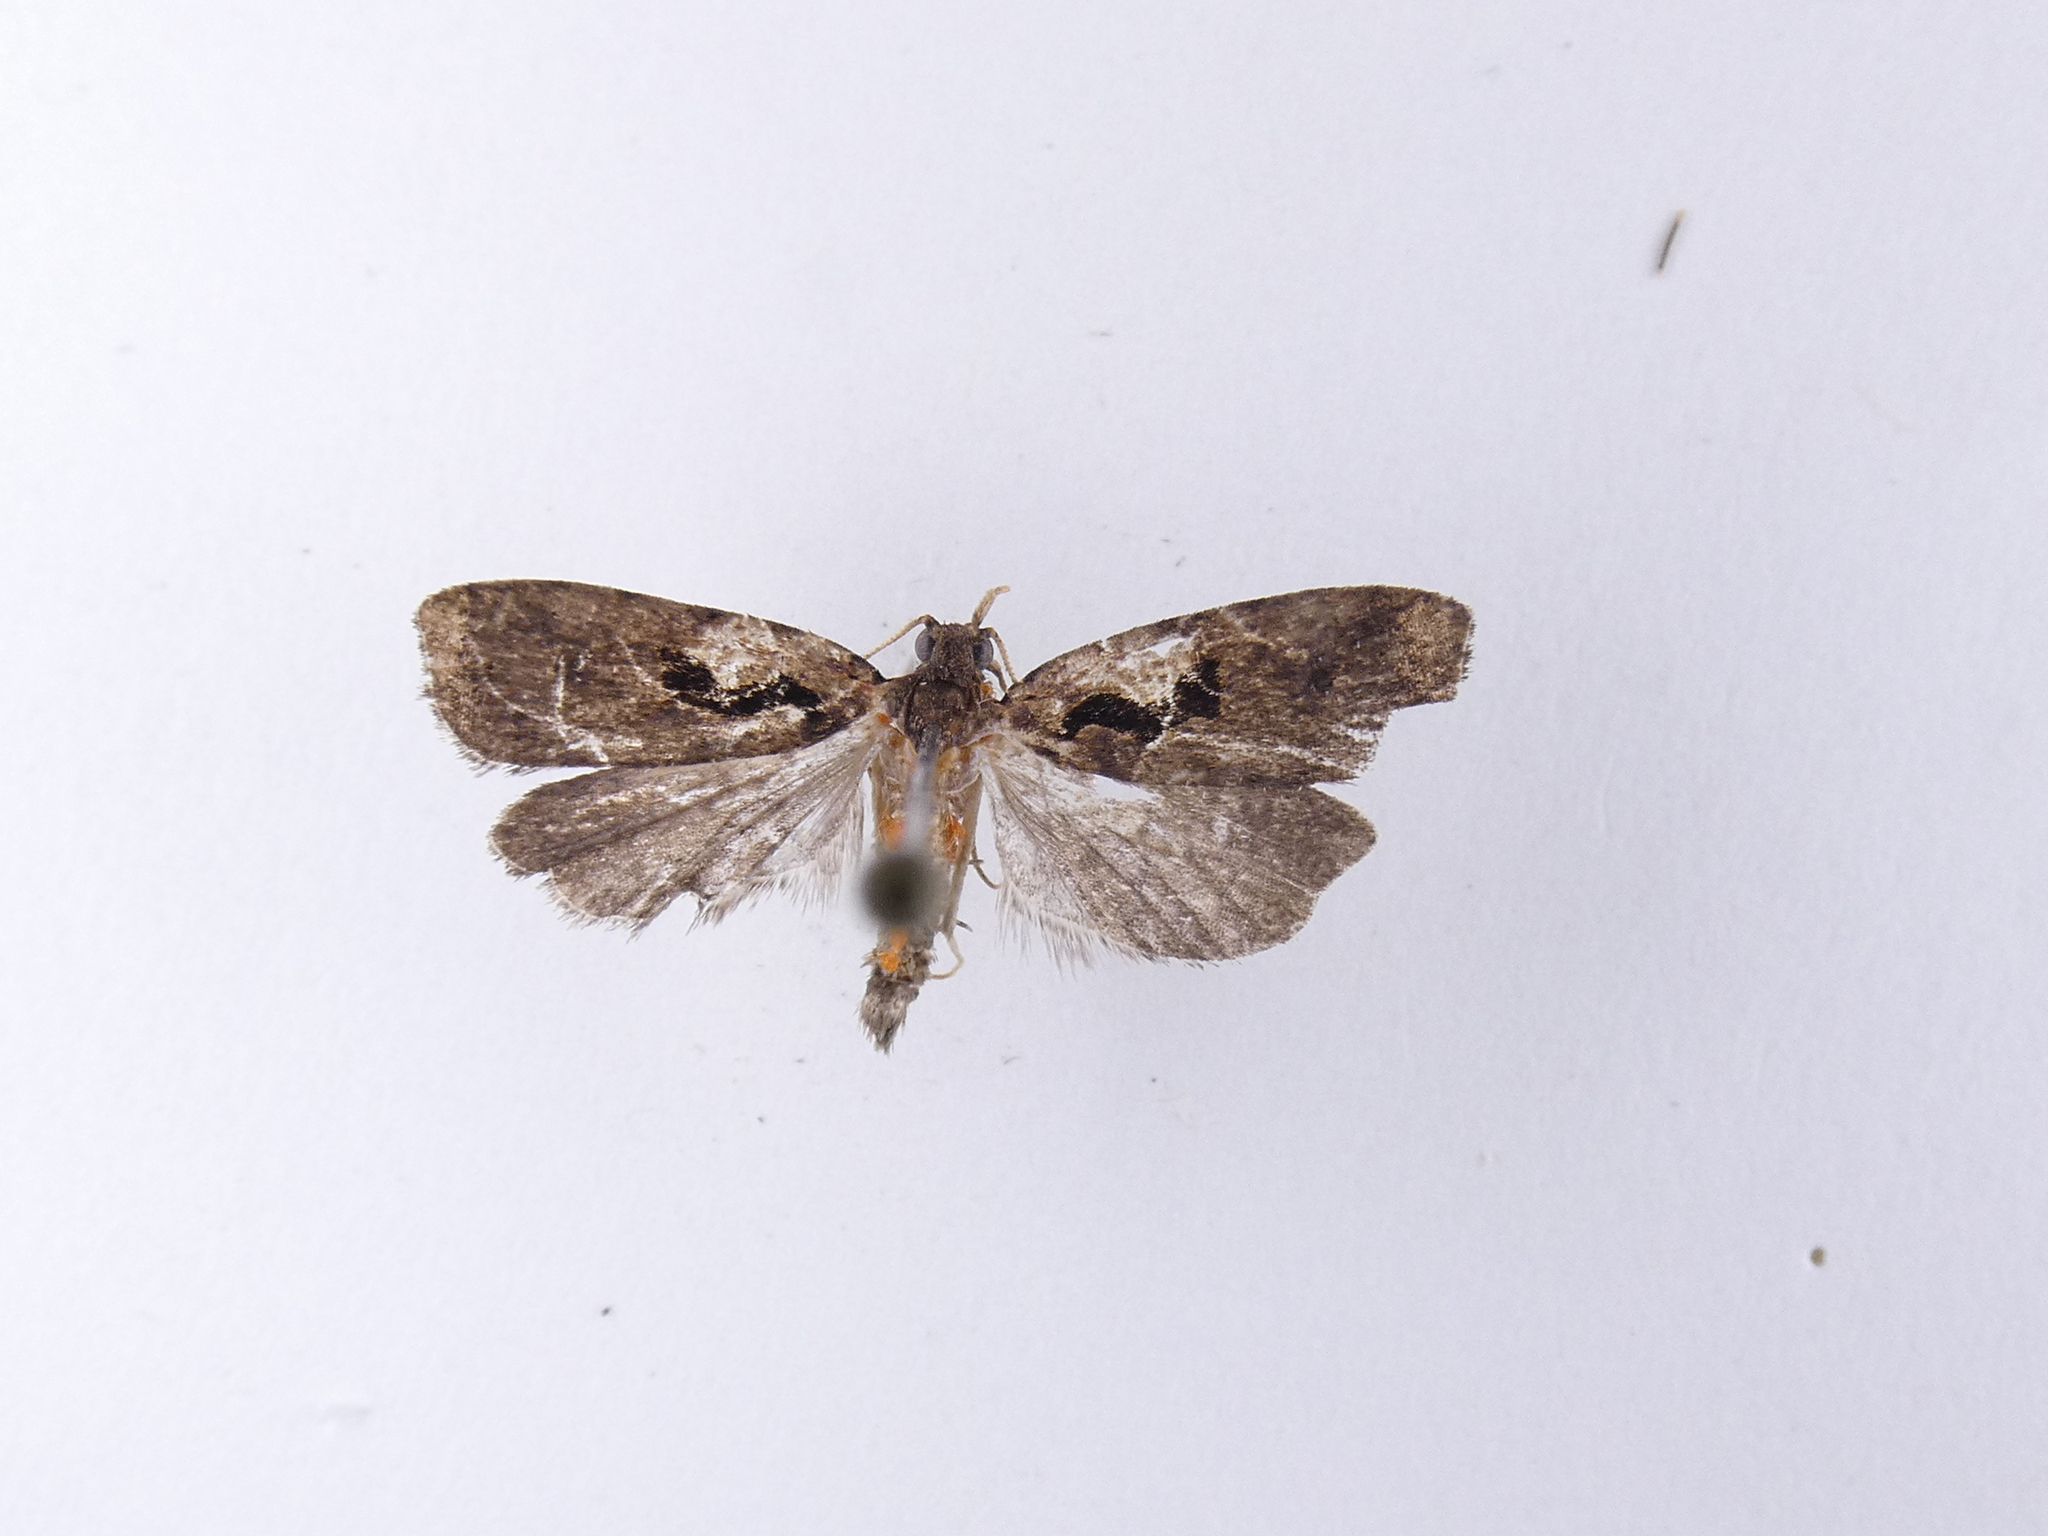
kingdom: Animalia
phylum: Arthropoda
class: Insecta
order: Lepidoptera
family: Tortricidae
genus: Cnephasia
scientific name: Cnephasia jactatana
